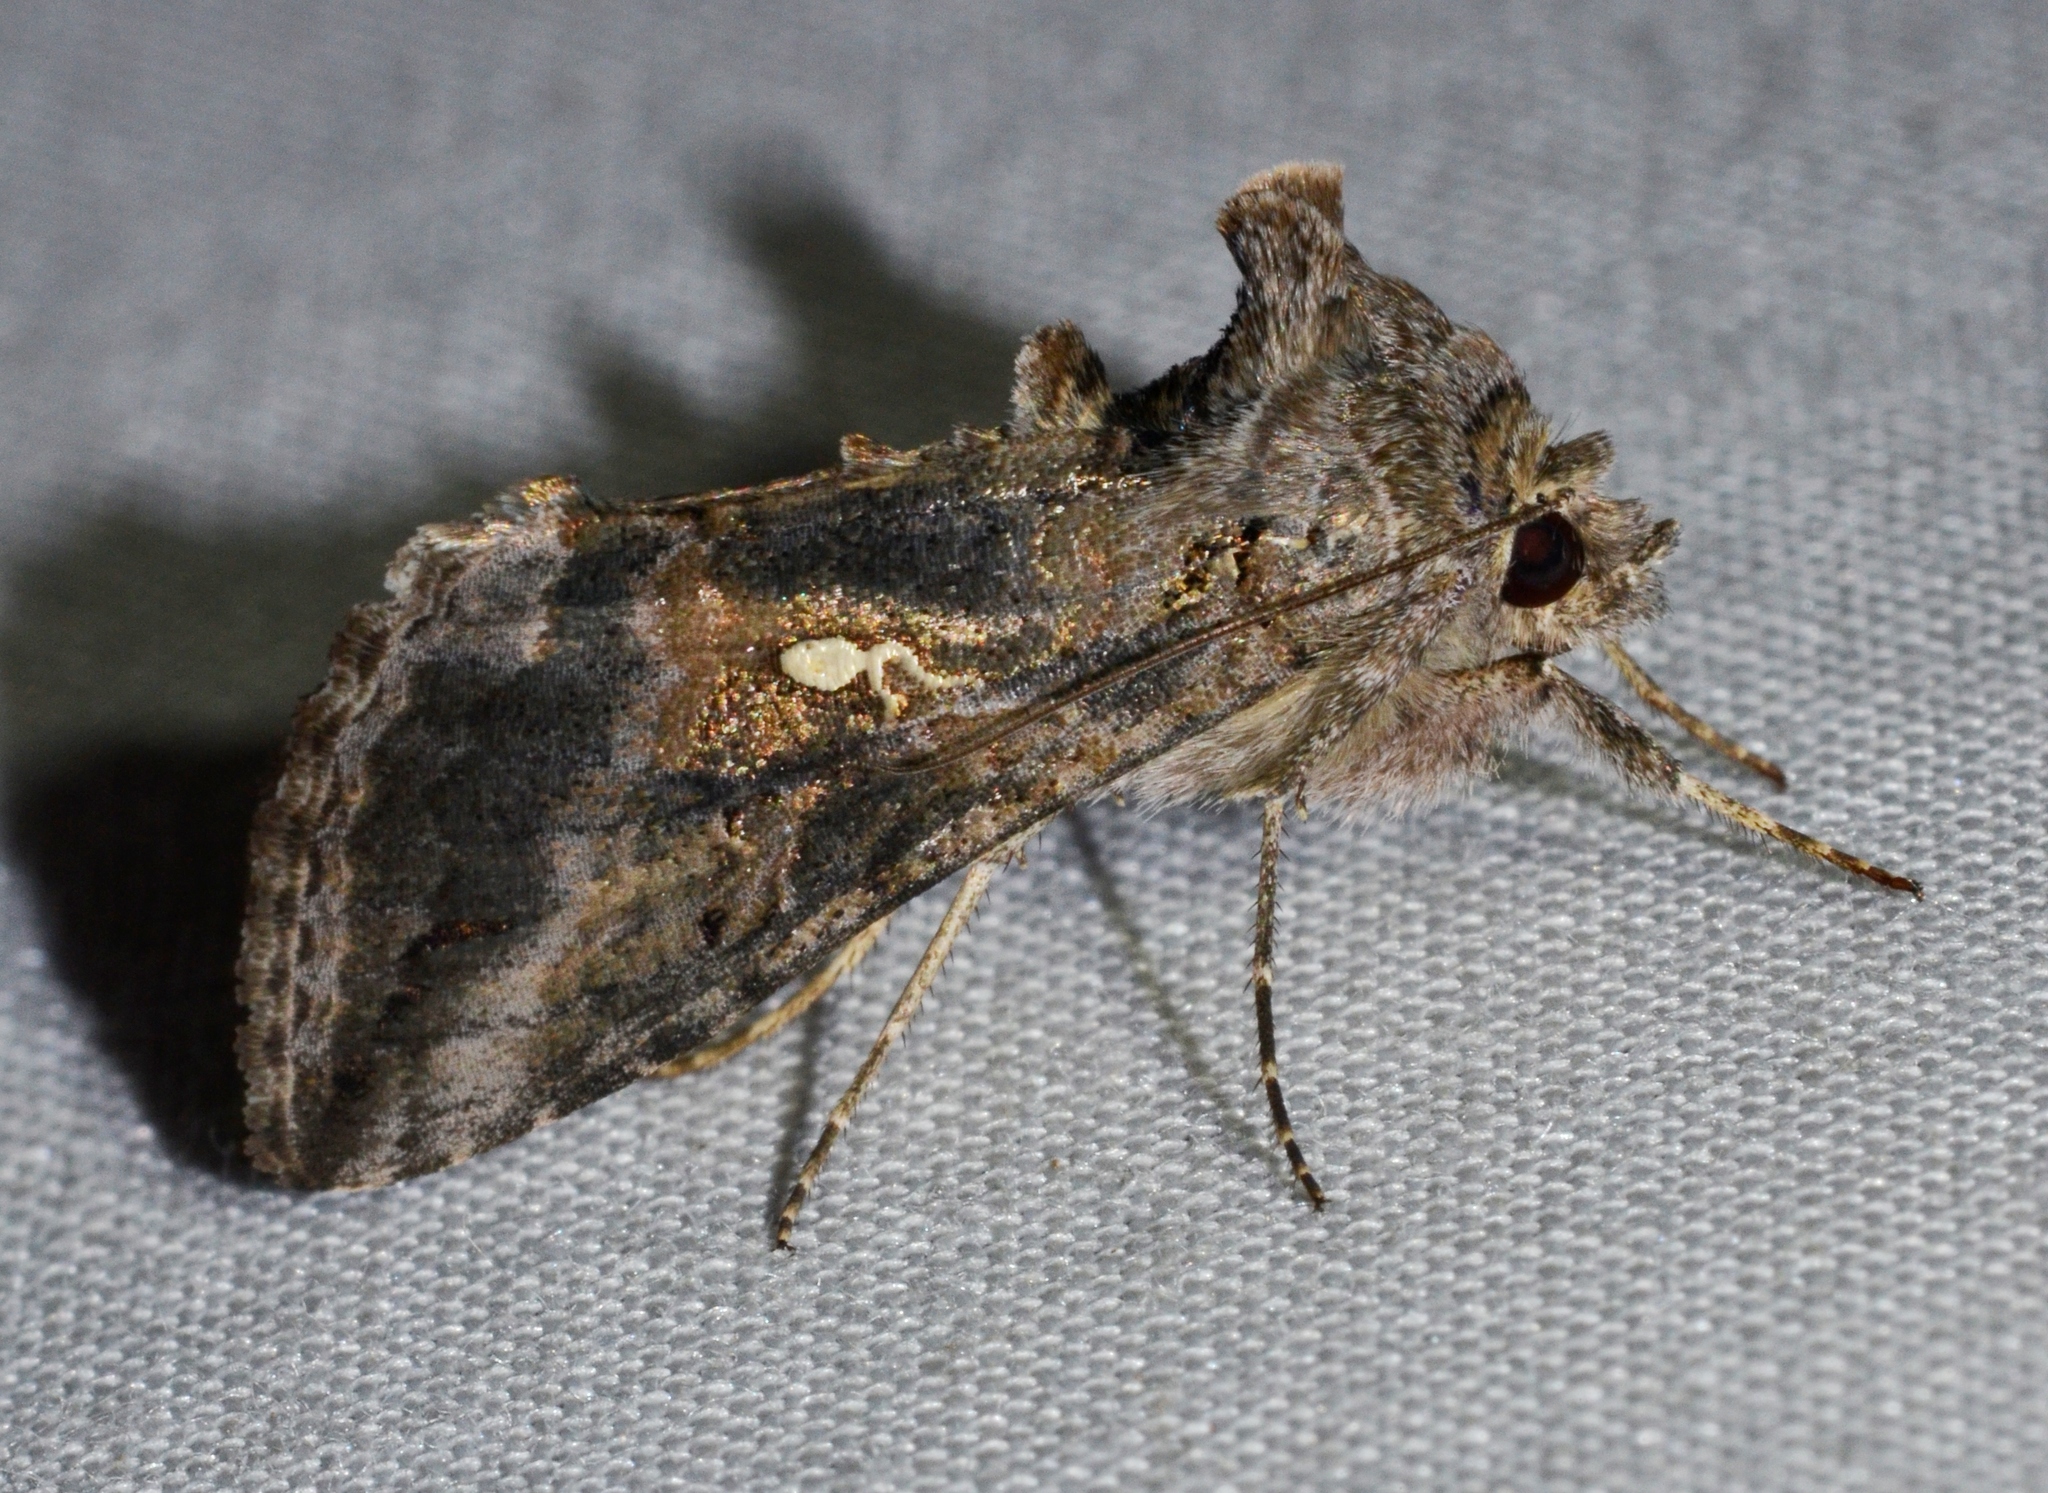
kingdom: Animalia
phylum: Arthropoda
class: Insecta
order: Lepidoptera
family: Noctuidae
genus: Rachiplusia
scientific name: Rachiplusia ou
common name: Gray looper moth
